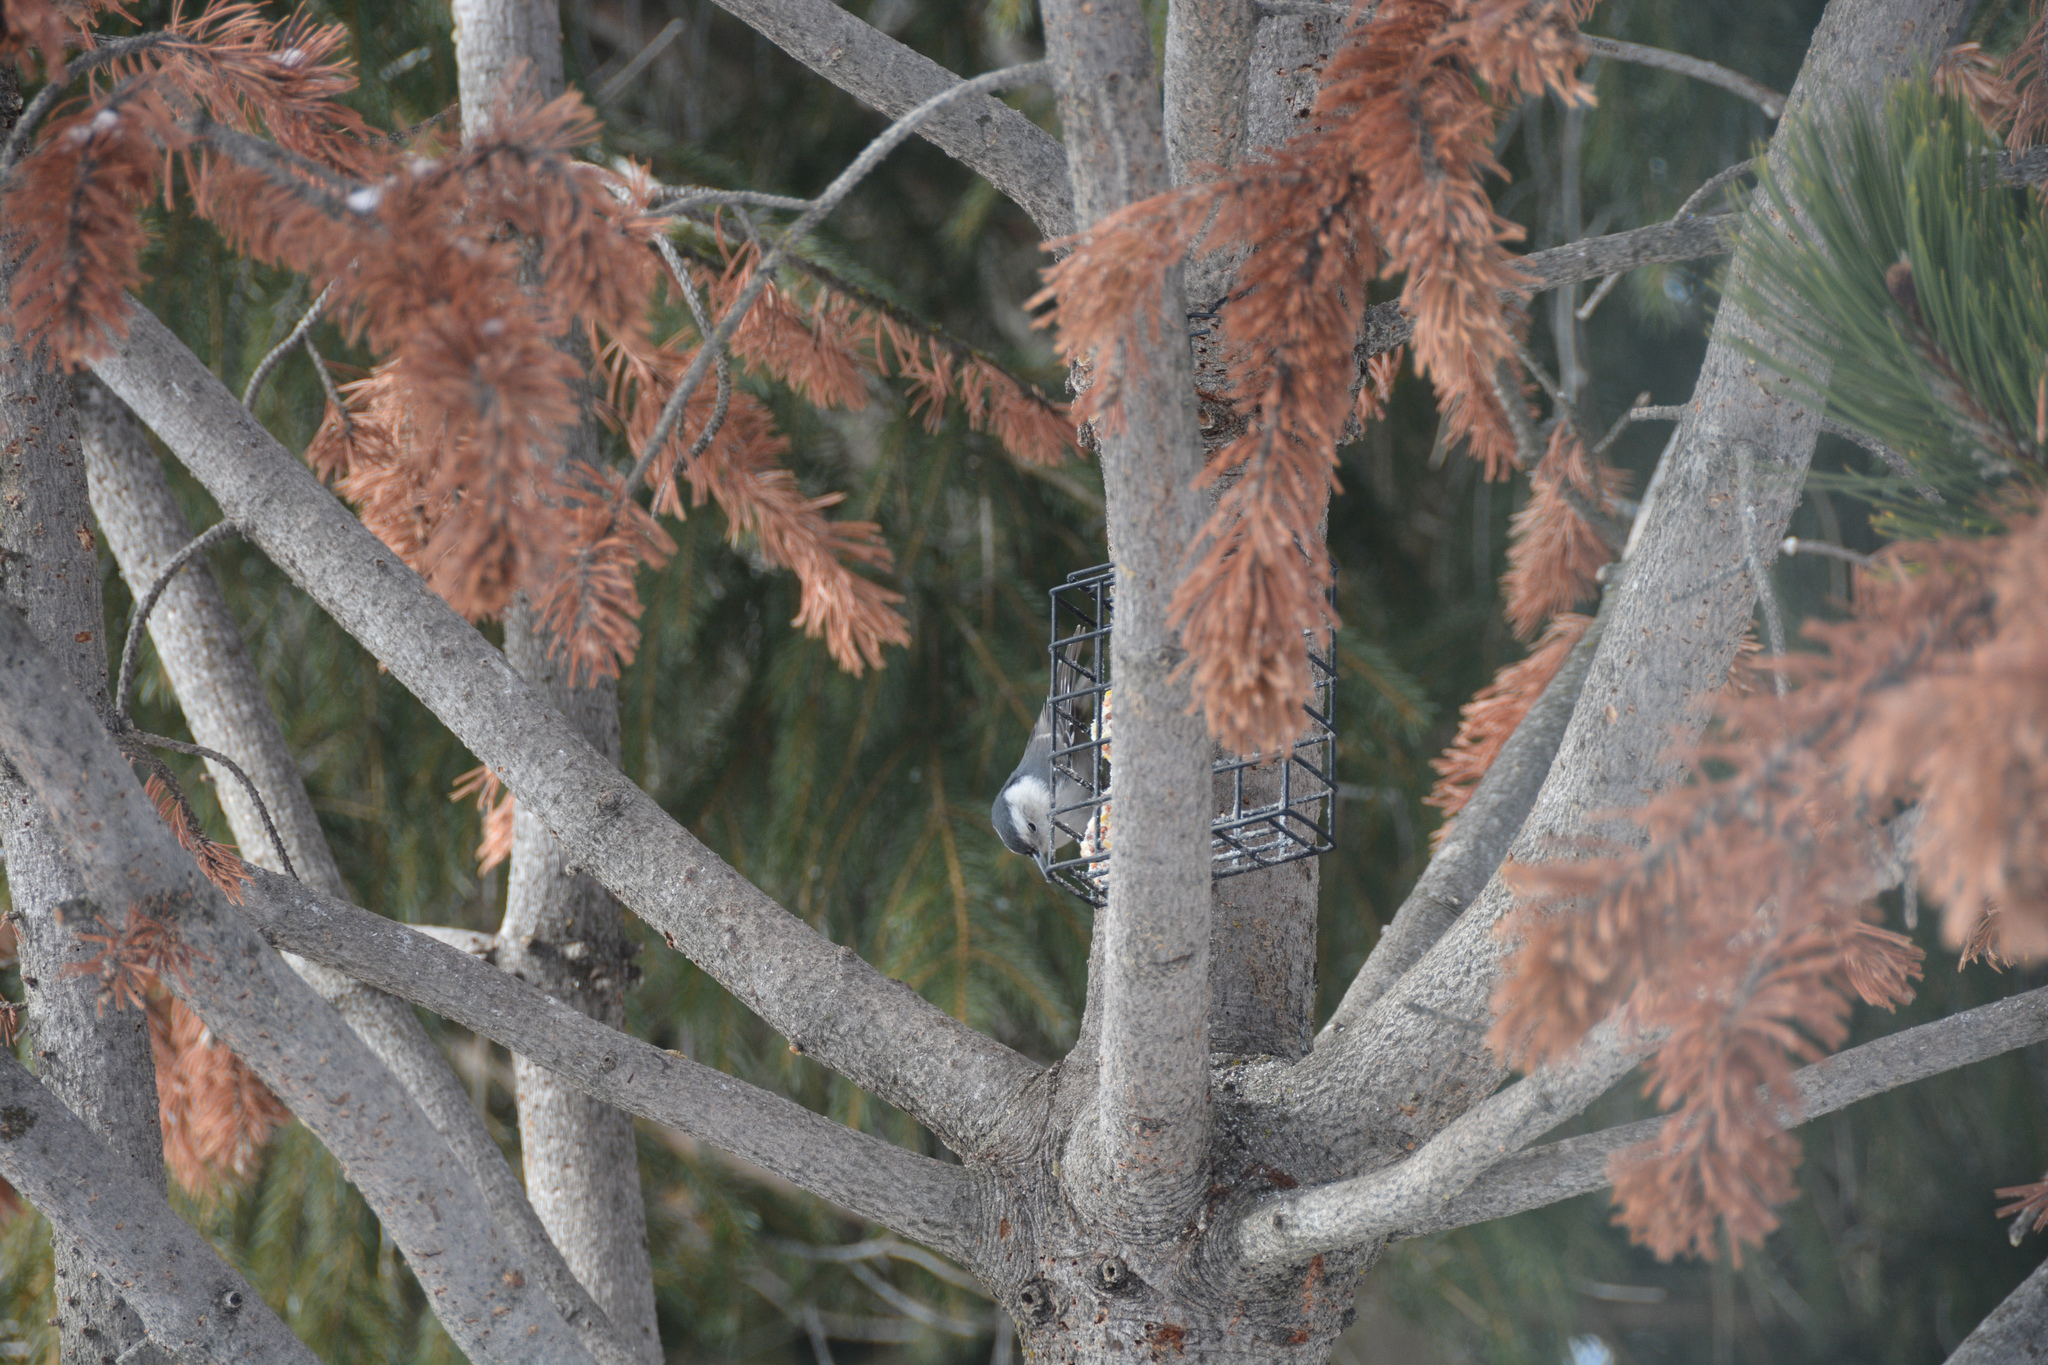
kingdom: Animalia
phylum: Chordata
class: Aves
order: Passeriformes
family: Sittidae
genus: Sitta
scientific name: Sitta carolinensis
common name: White-breasted nuthatch
